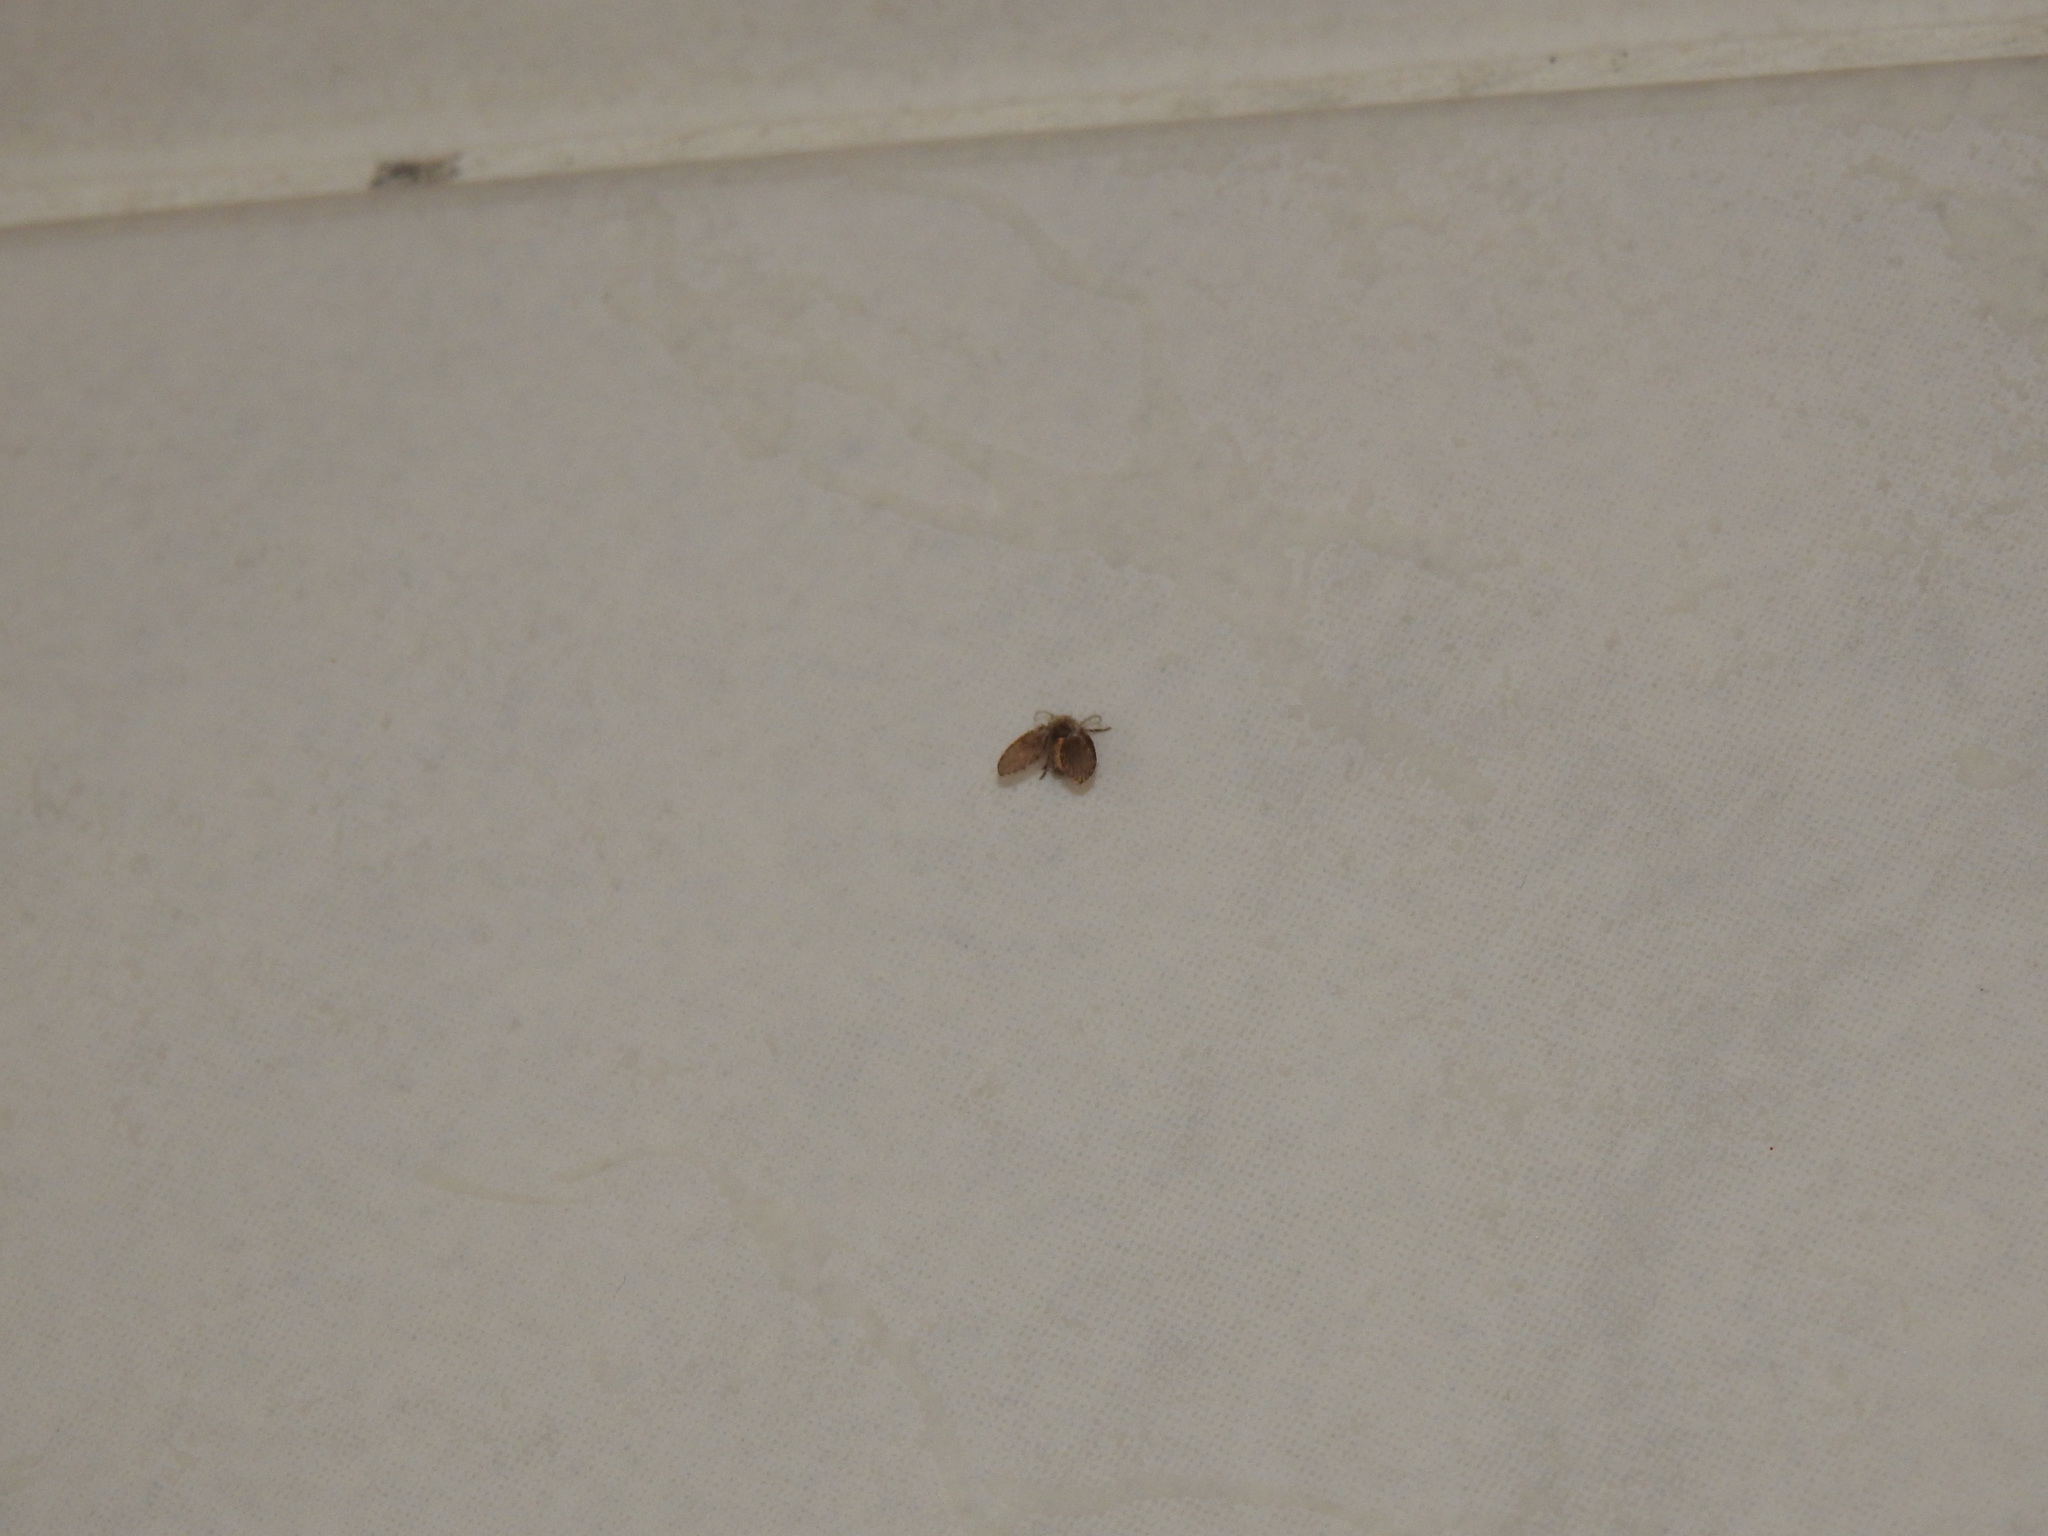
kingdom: Animalia
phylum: Arthropoda
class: Insecta
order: Diptera
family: Psychodidae
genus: Clogmia
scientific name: Clogmia albipunctatus
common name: White-spotted moth fly
